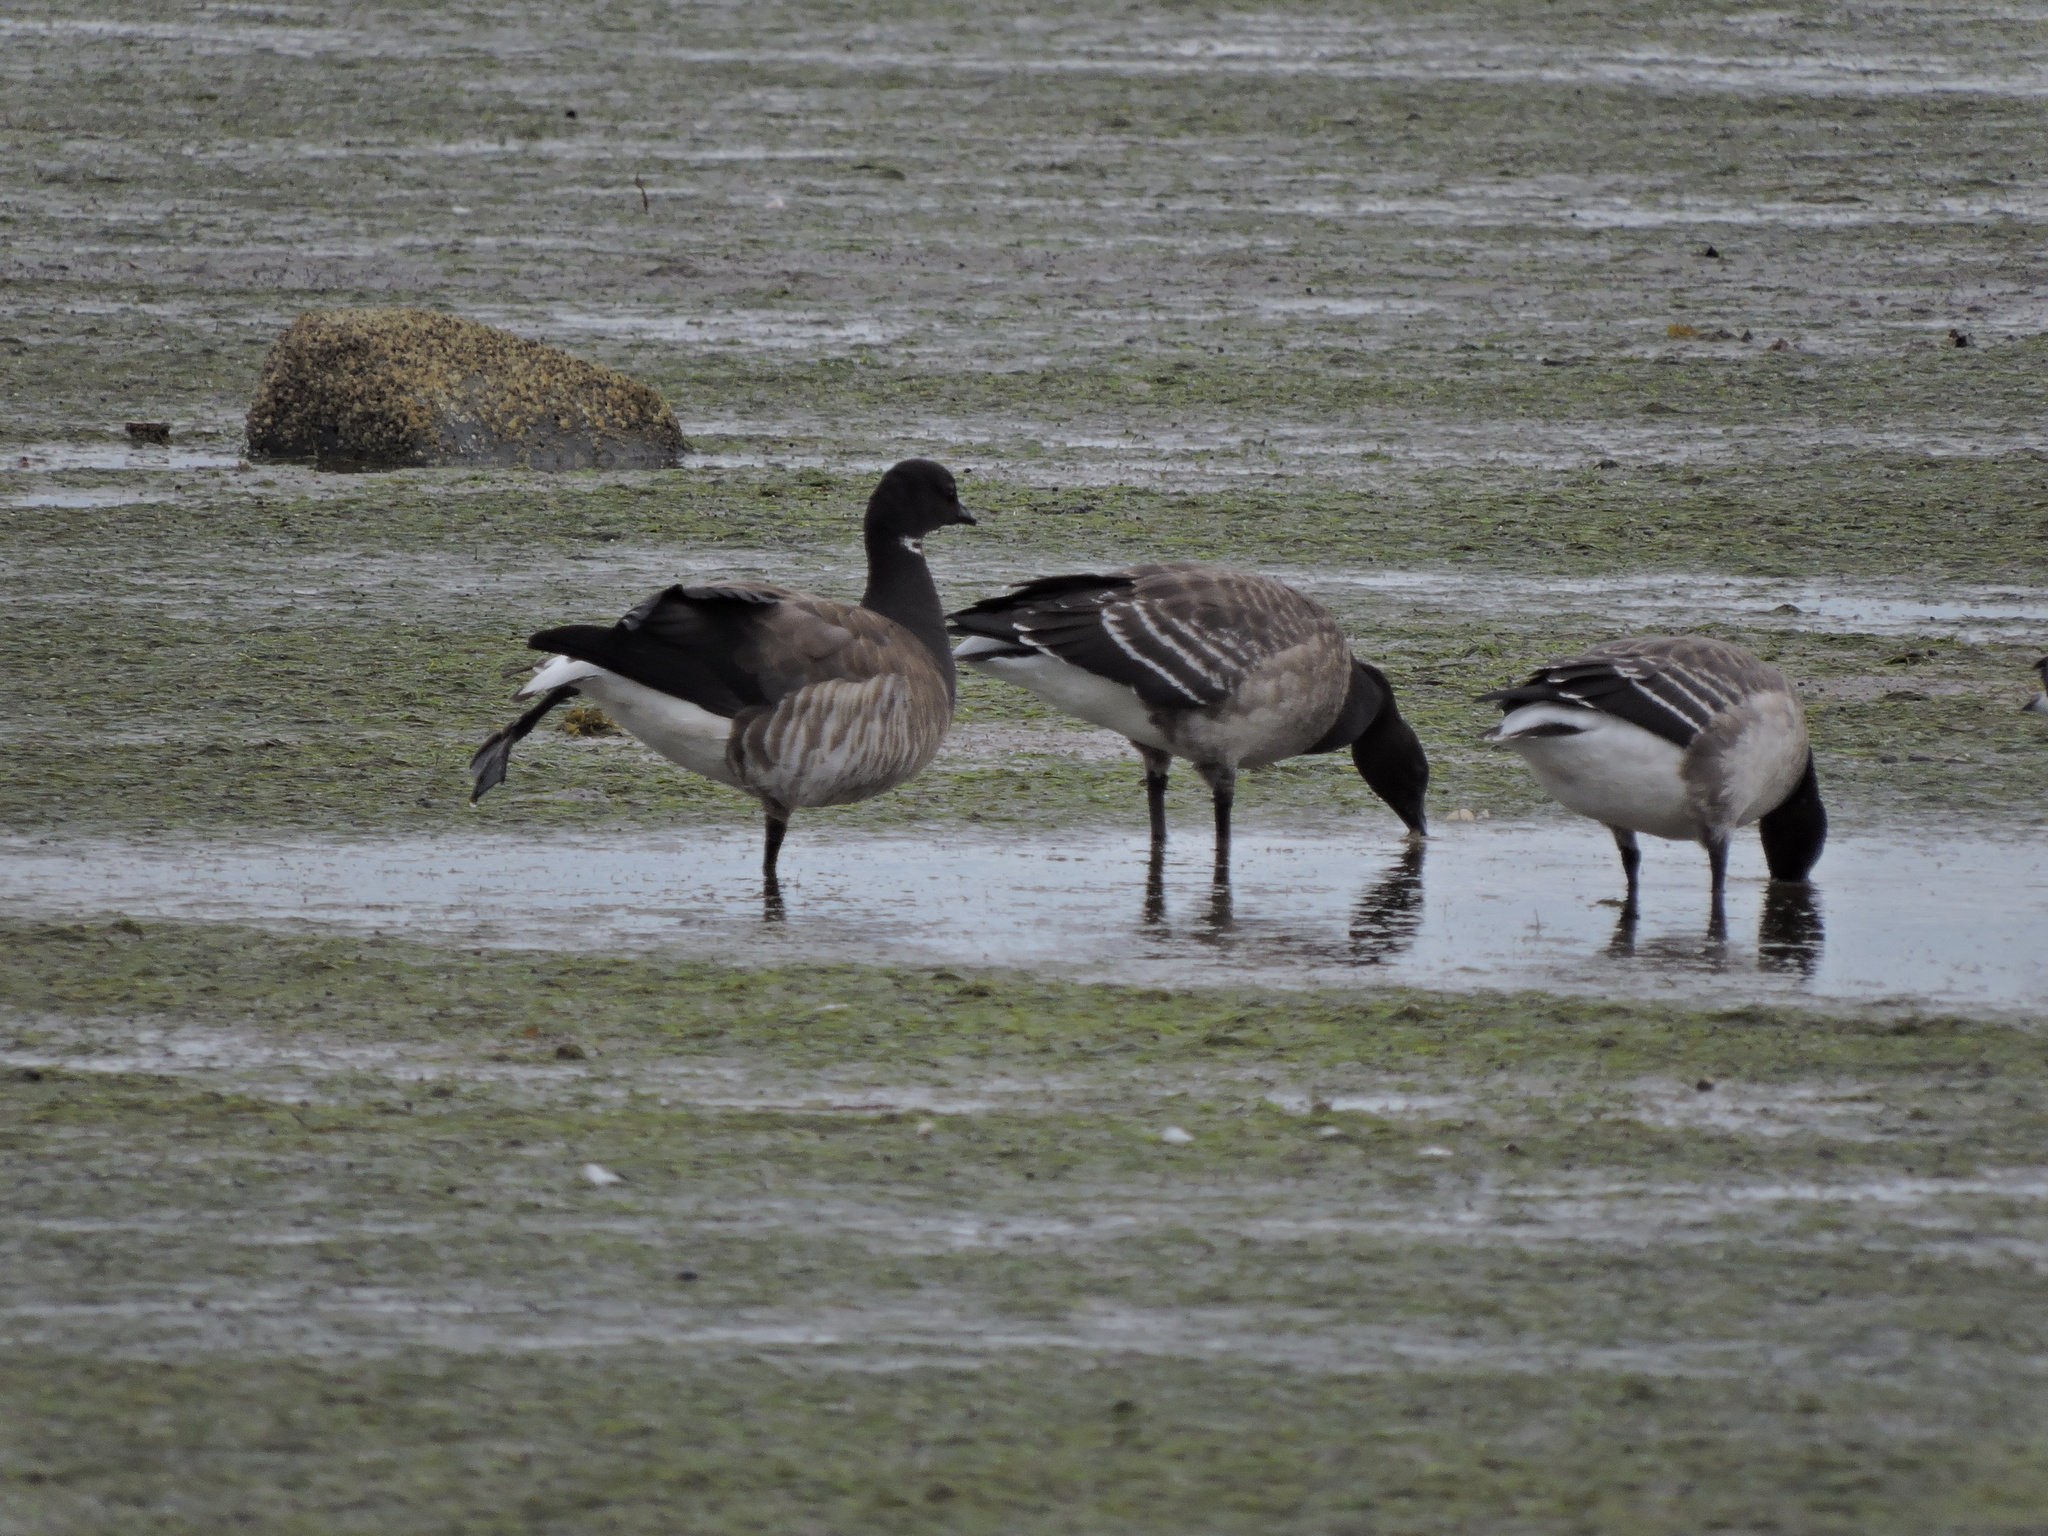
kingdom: Animalia
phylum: Chordata
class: Aves
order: Anseriformes
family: Anatidae
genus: Branta
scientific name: Branta bernicla
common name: Brant goose
